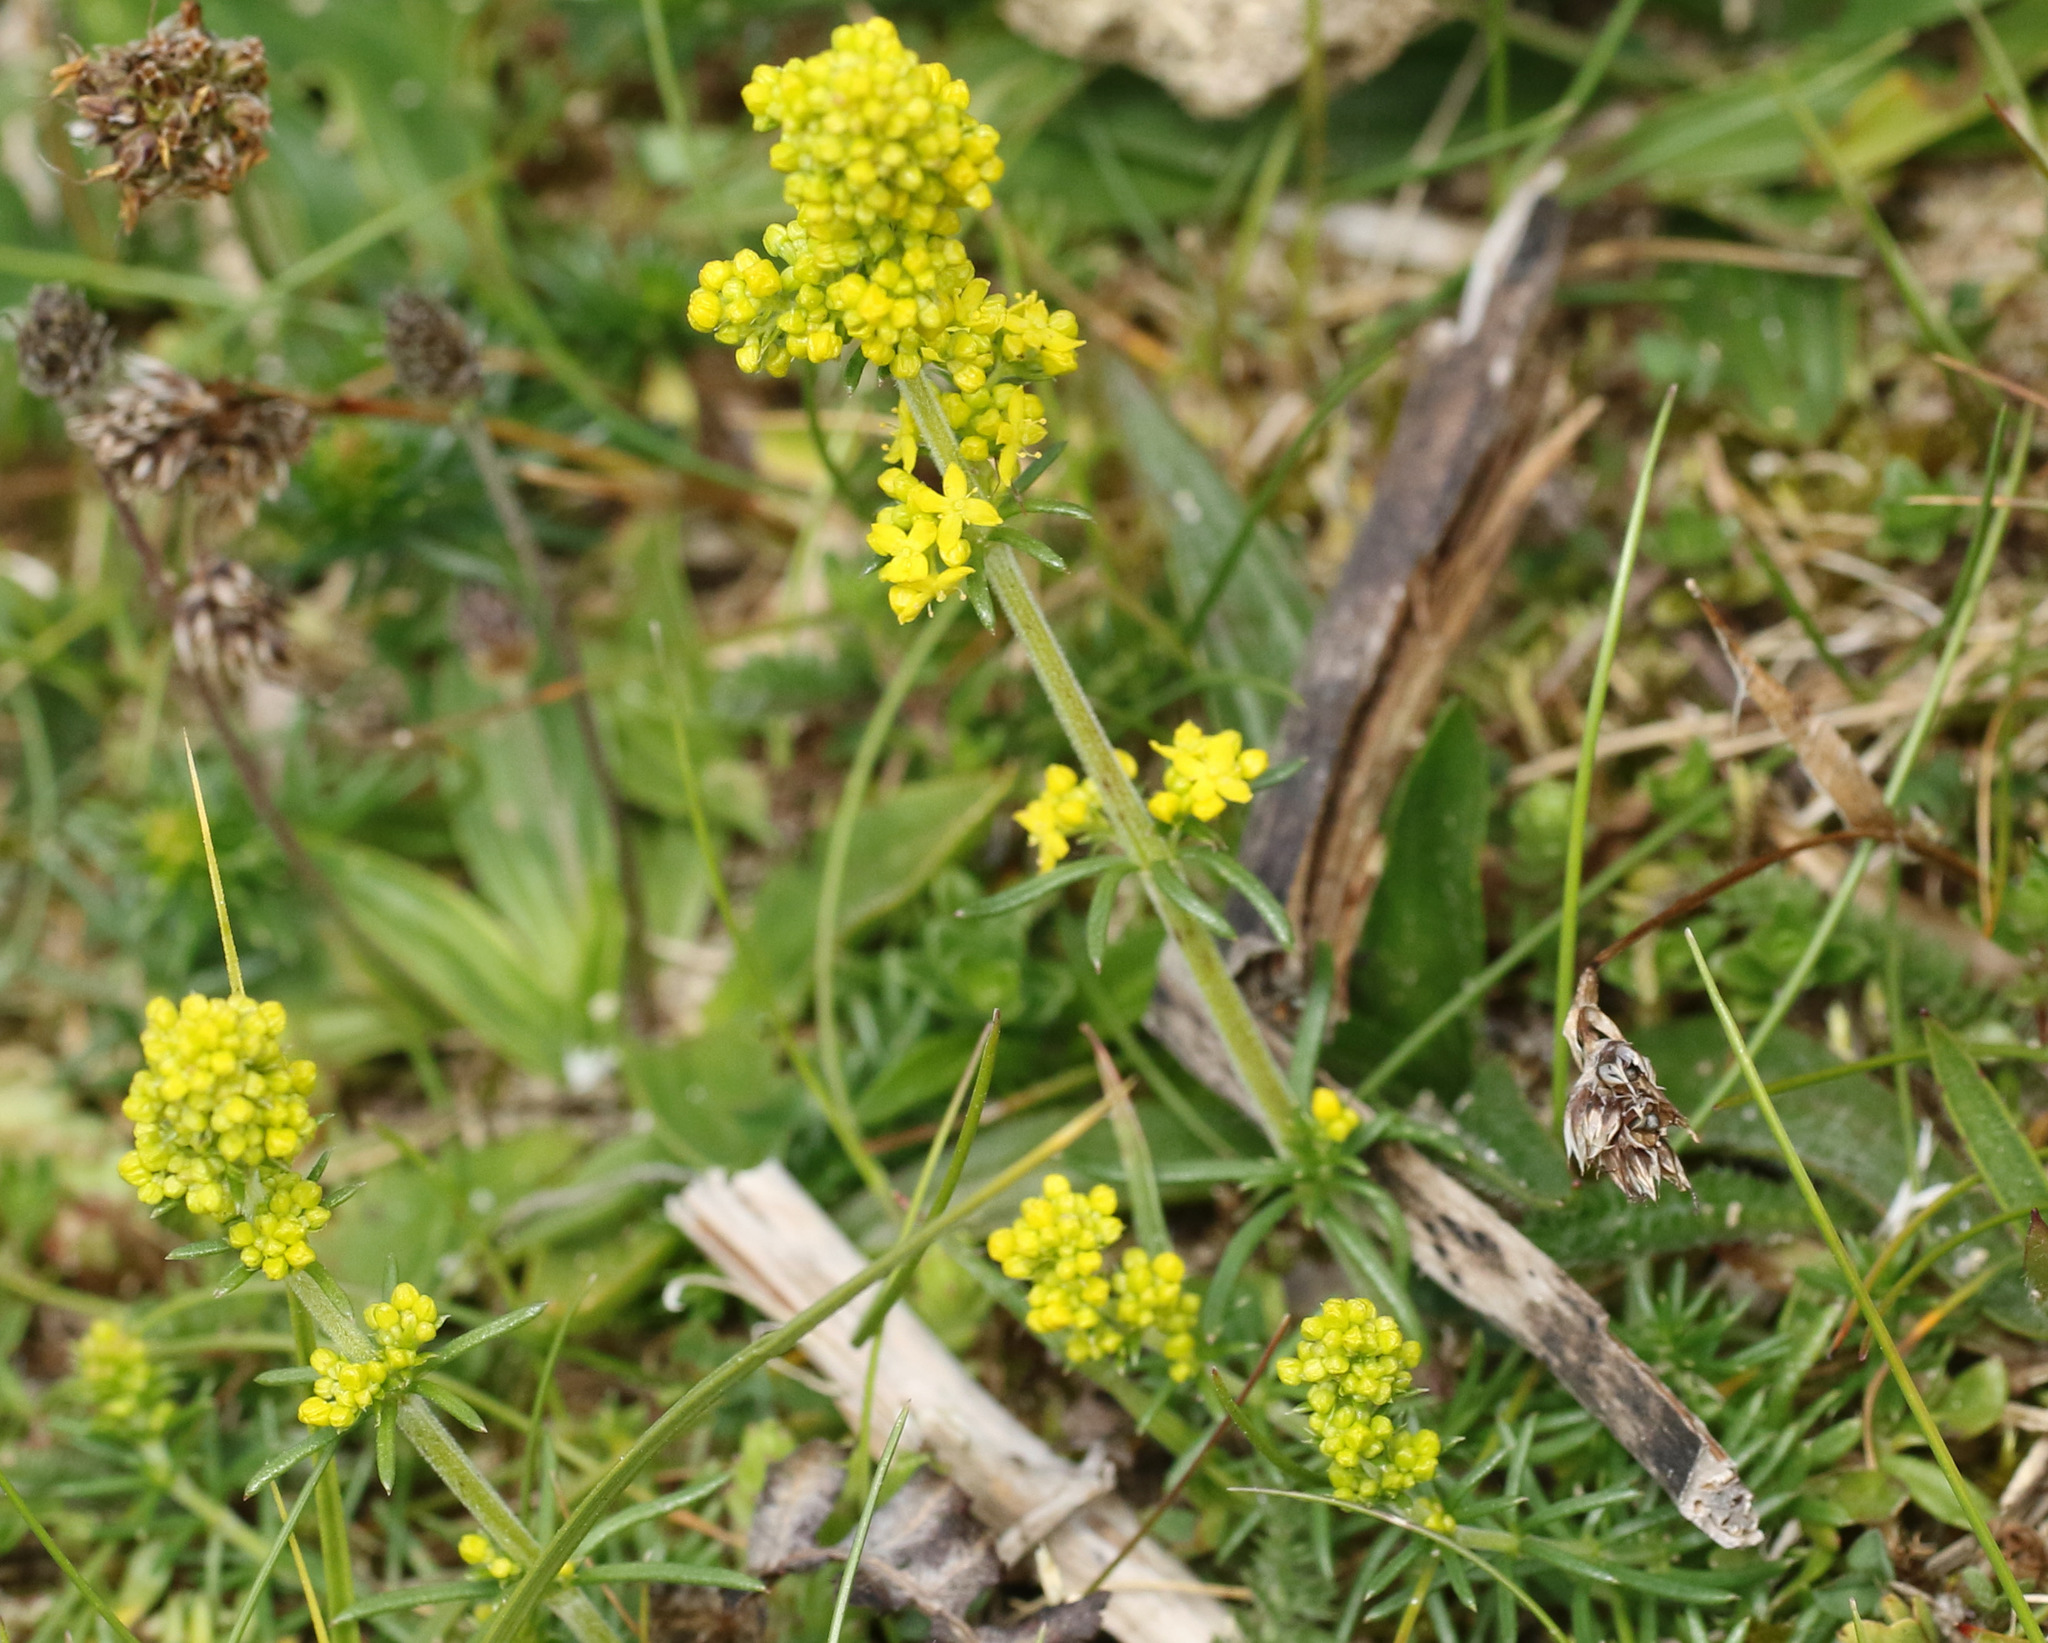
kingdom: Plantae
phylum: Tracheophyta
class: Magnoliopsida
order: Gentianales
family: Rubiaceae
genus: Galium
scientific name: Galium verum
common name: Lady's bedstraw
